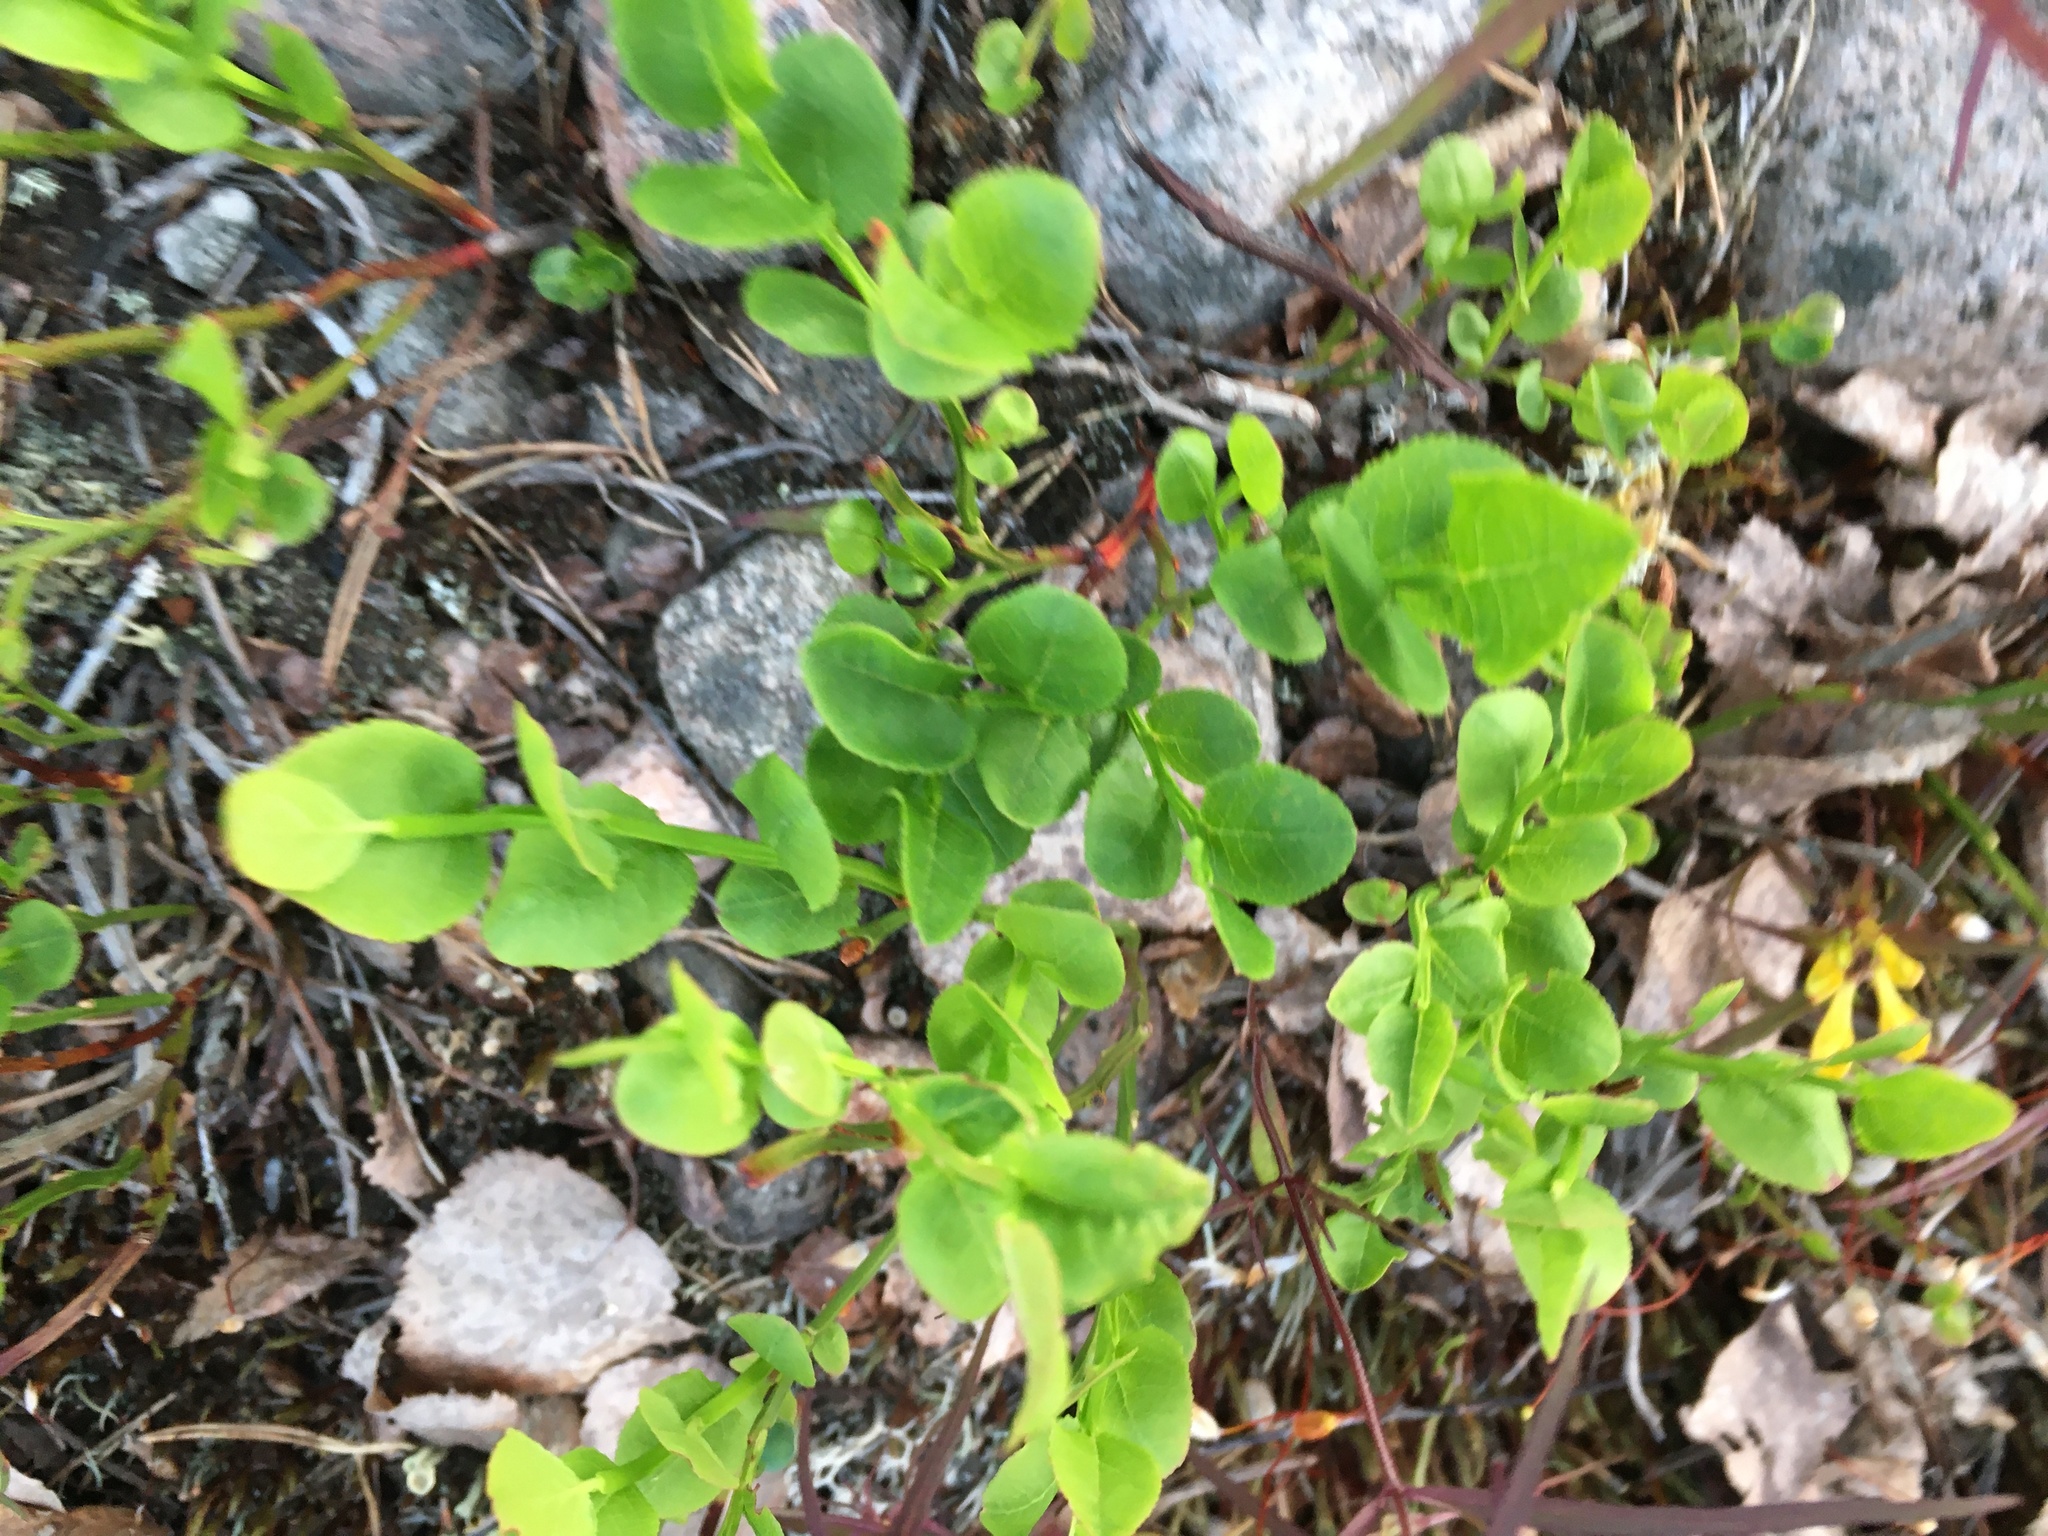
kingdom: Plantae
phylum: Tracheophyta
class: Magnoliopsida
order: Ericales
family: Ericaceae
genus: Vaccinium
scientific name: Vaccinium myrtillus
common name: Bilberry
